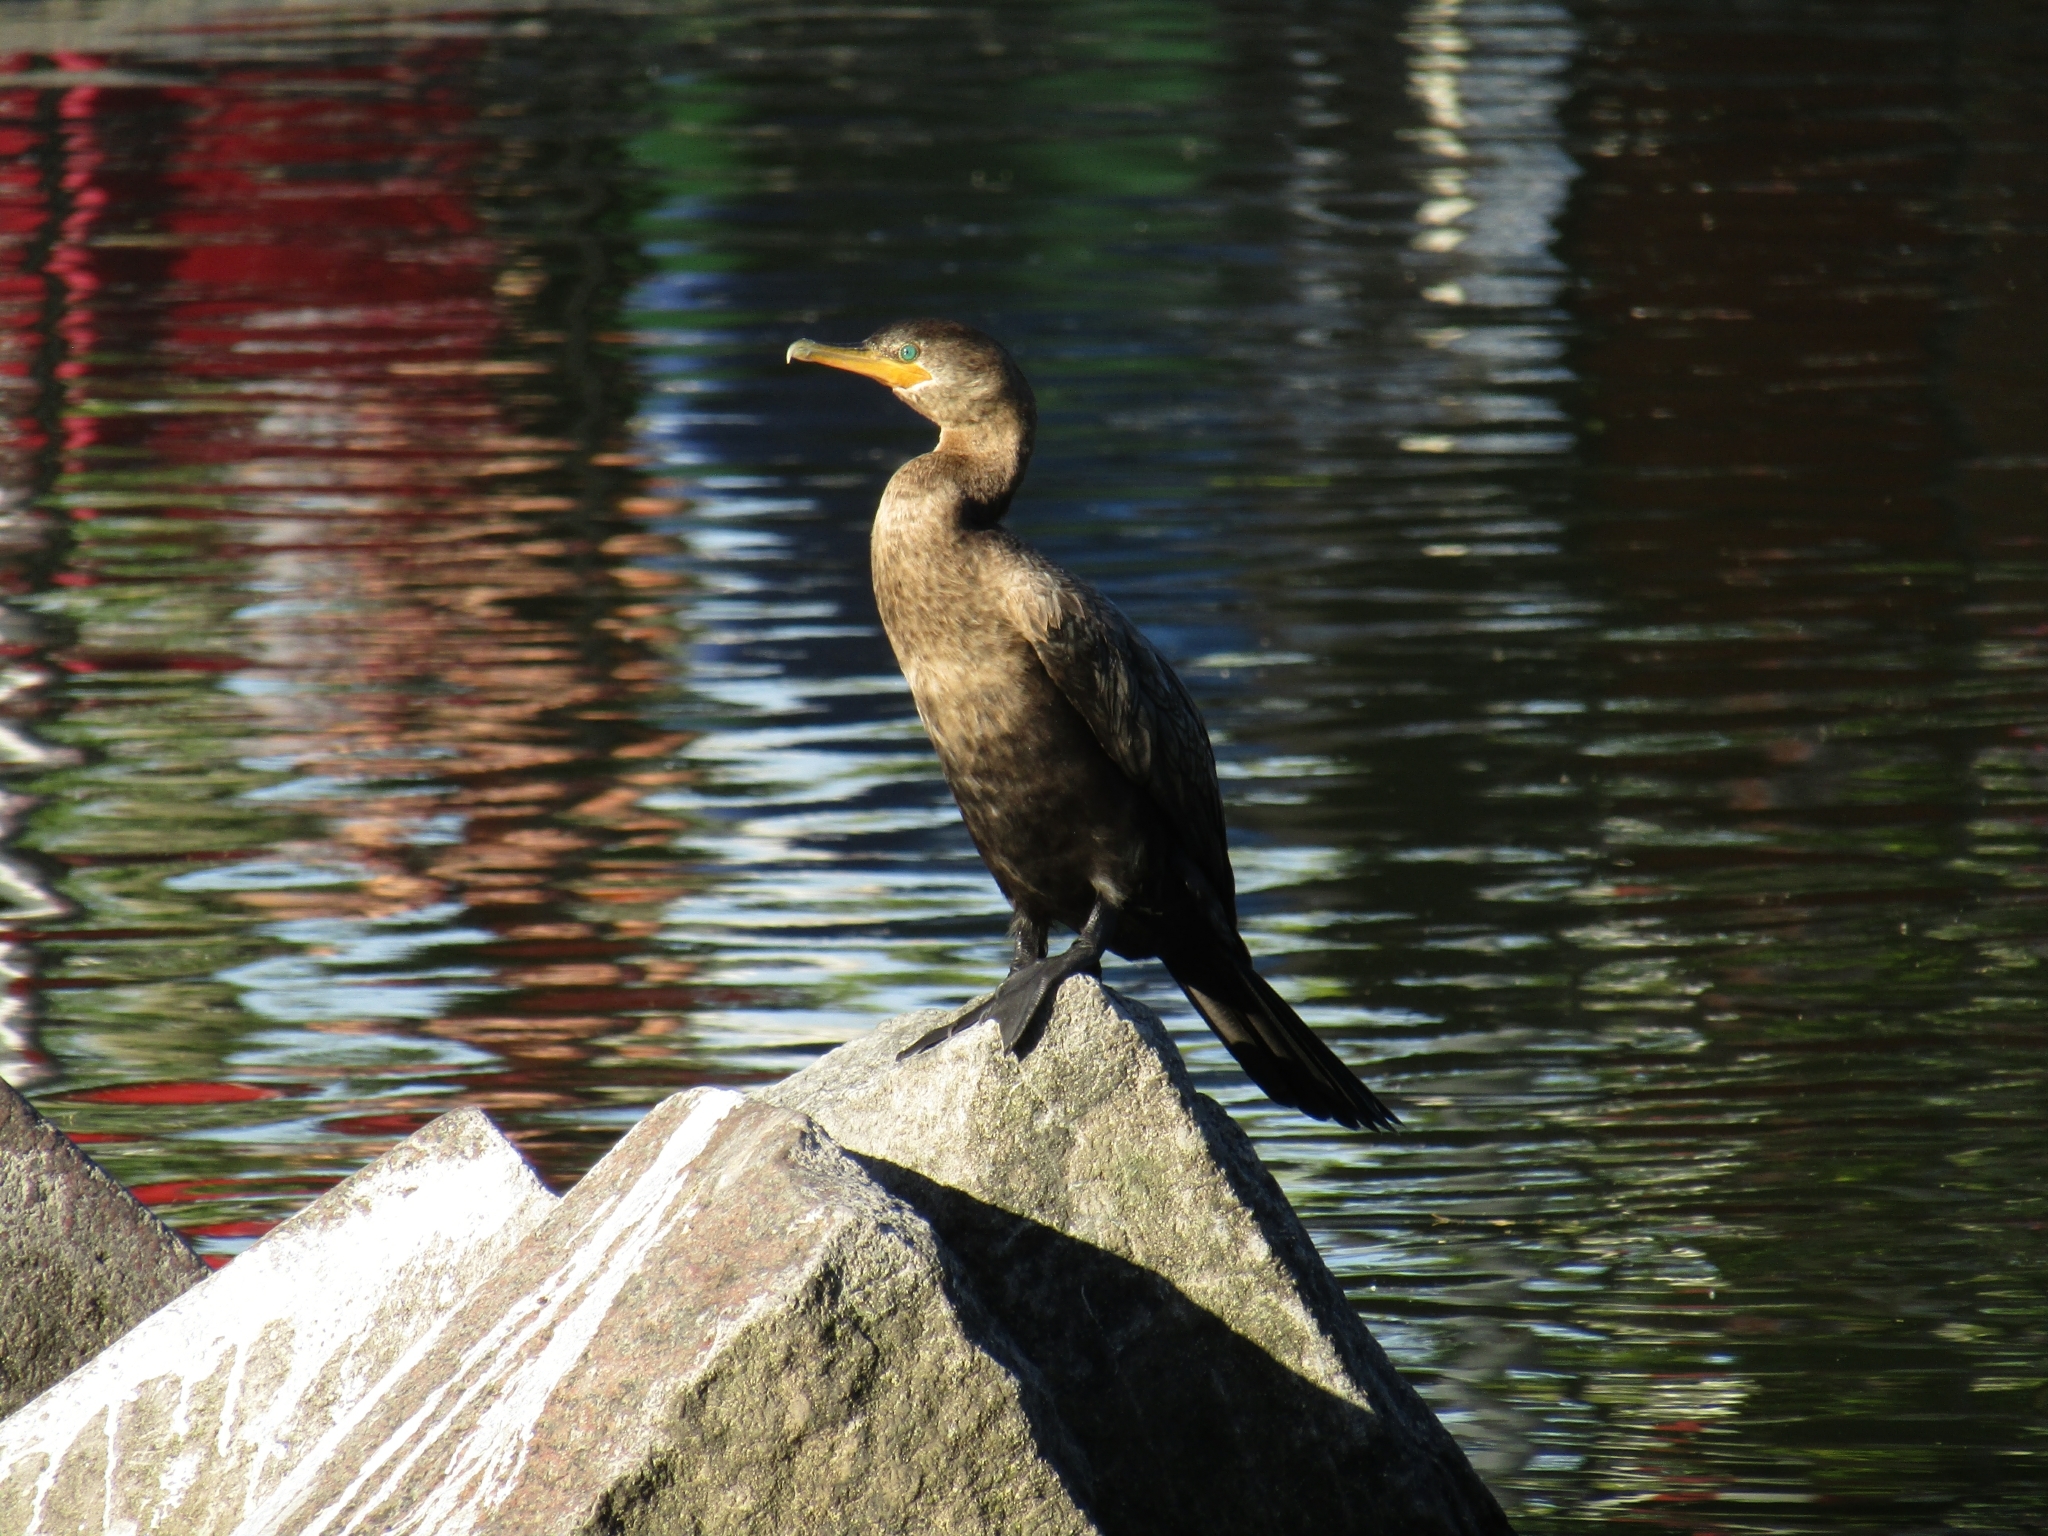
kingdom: Animalia
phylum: Chordata
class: Aves
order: Suliformes
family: Phalacrocoracidae
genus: Phalacrocorax
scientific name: Phalacrocorax brasilianus
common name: Neotropic cormorant
